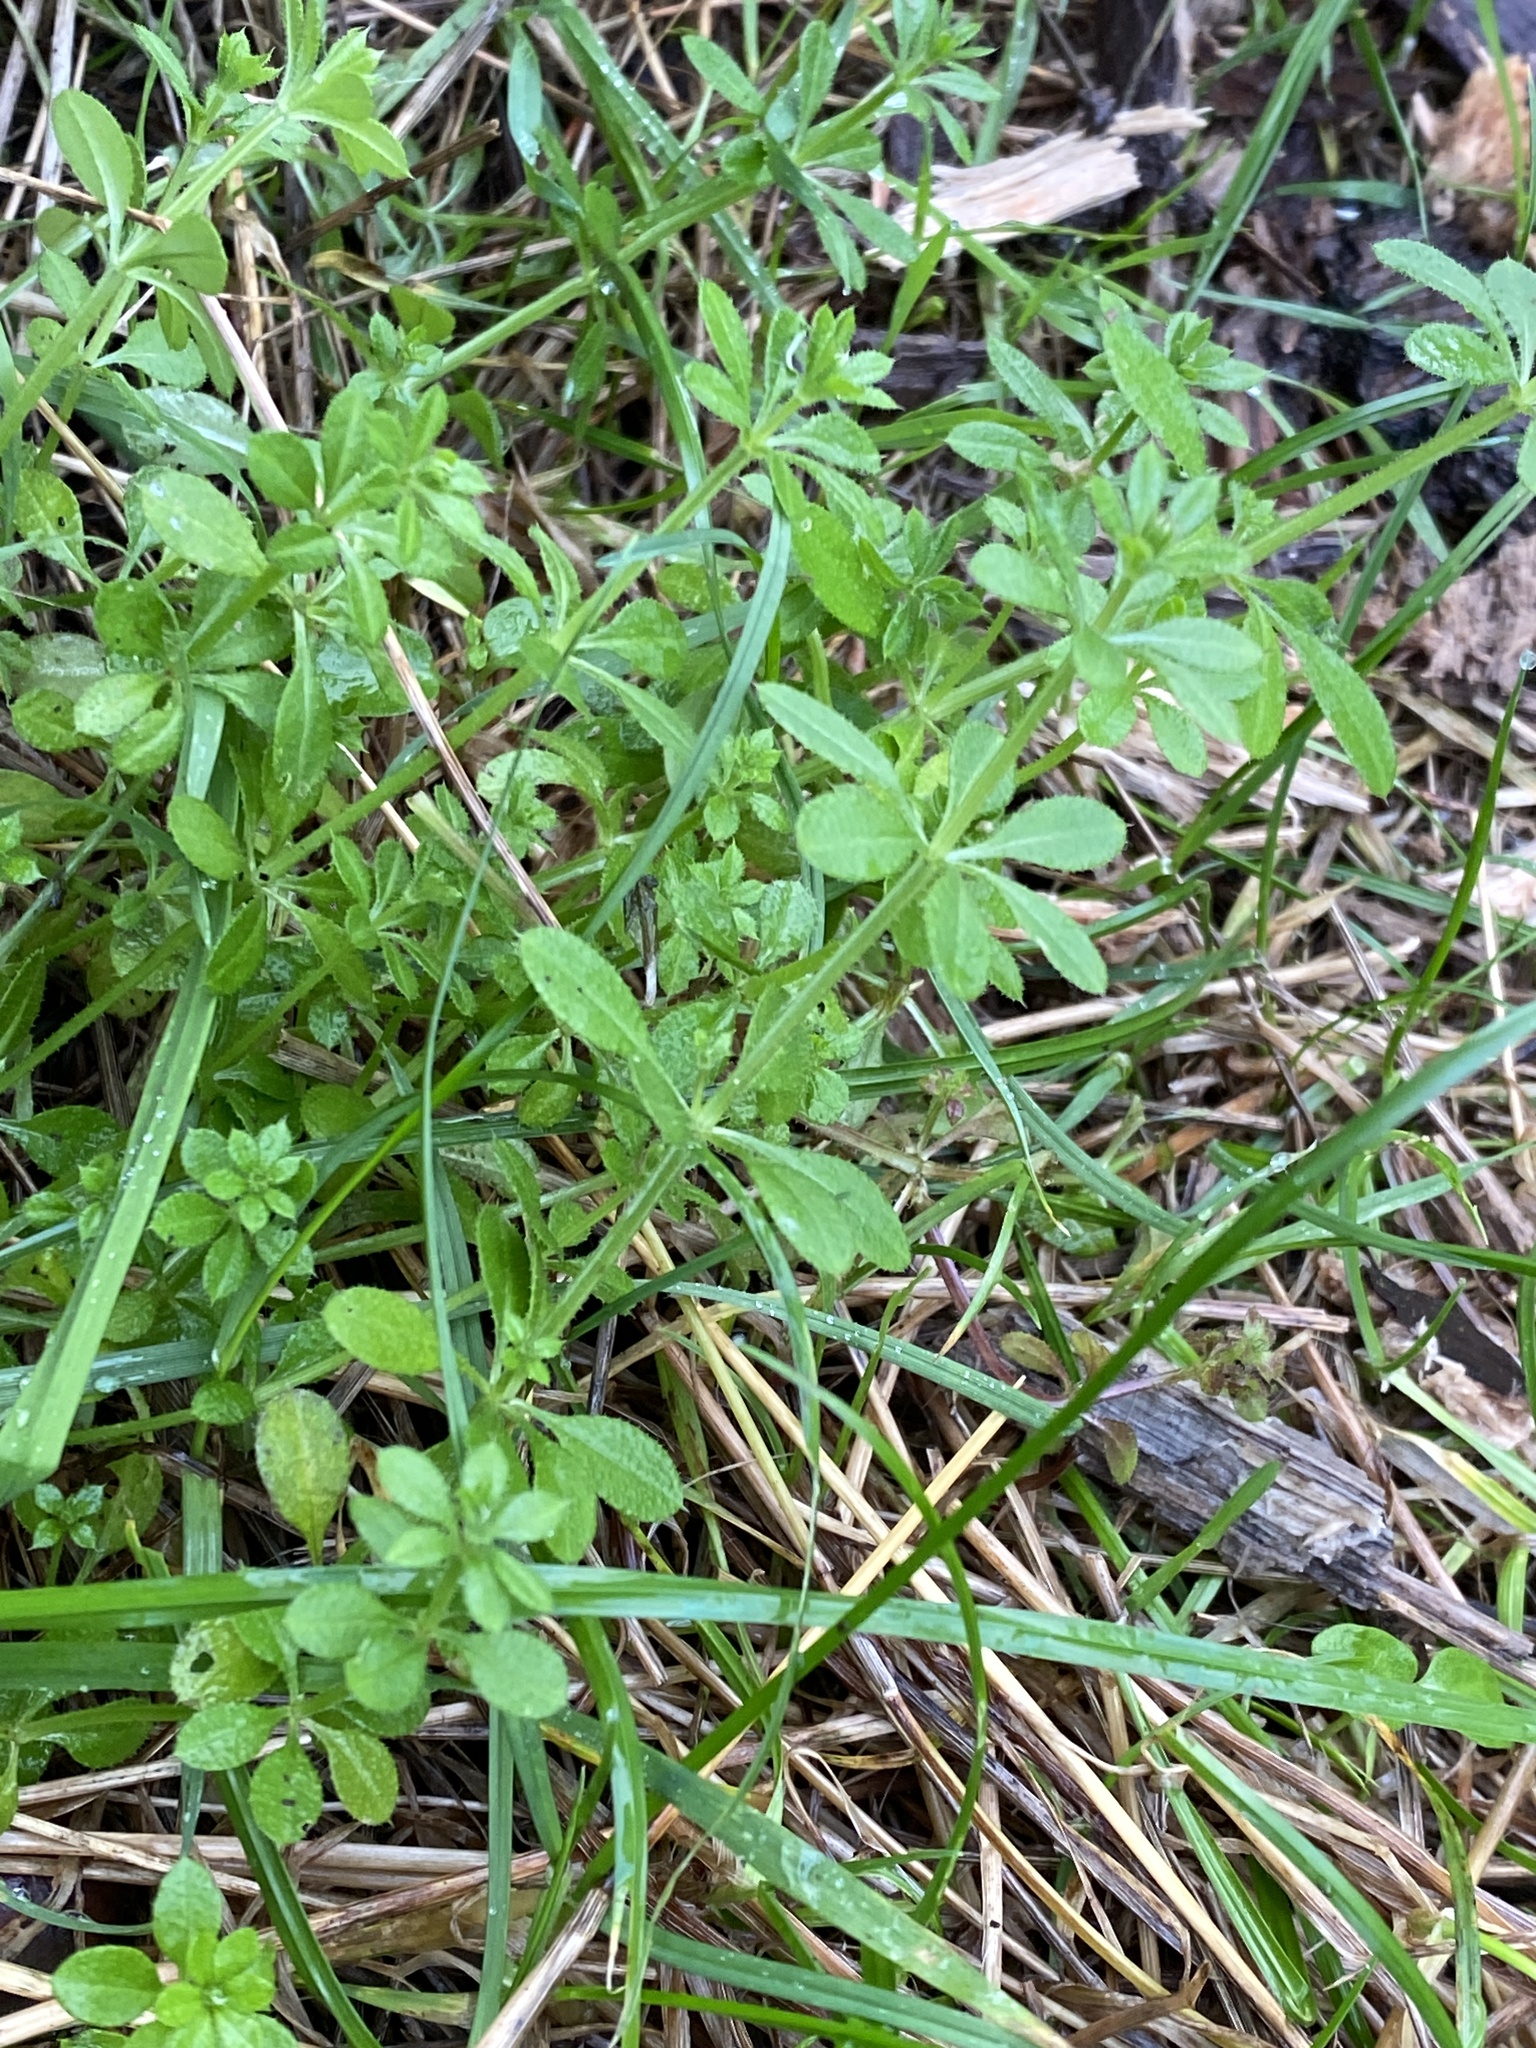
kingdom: Plantae
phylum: Tracheophyta
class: Magnoliopsida
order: Gentianales
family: Rubiaceae
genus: Galium
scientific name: Galium aparine
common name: Cleavers
